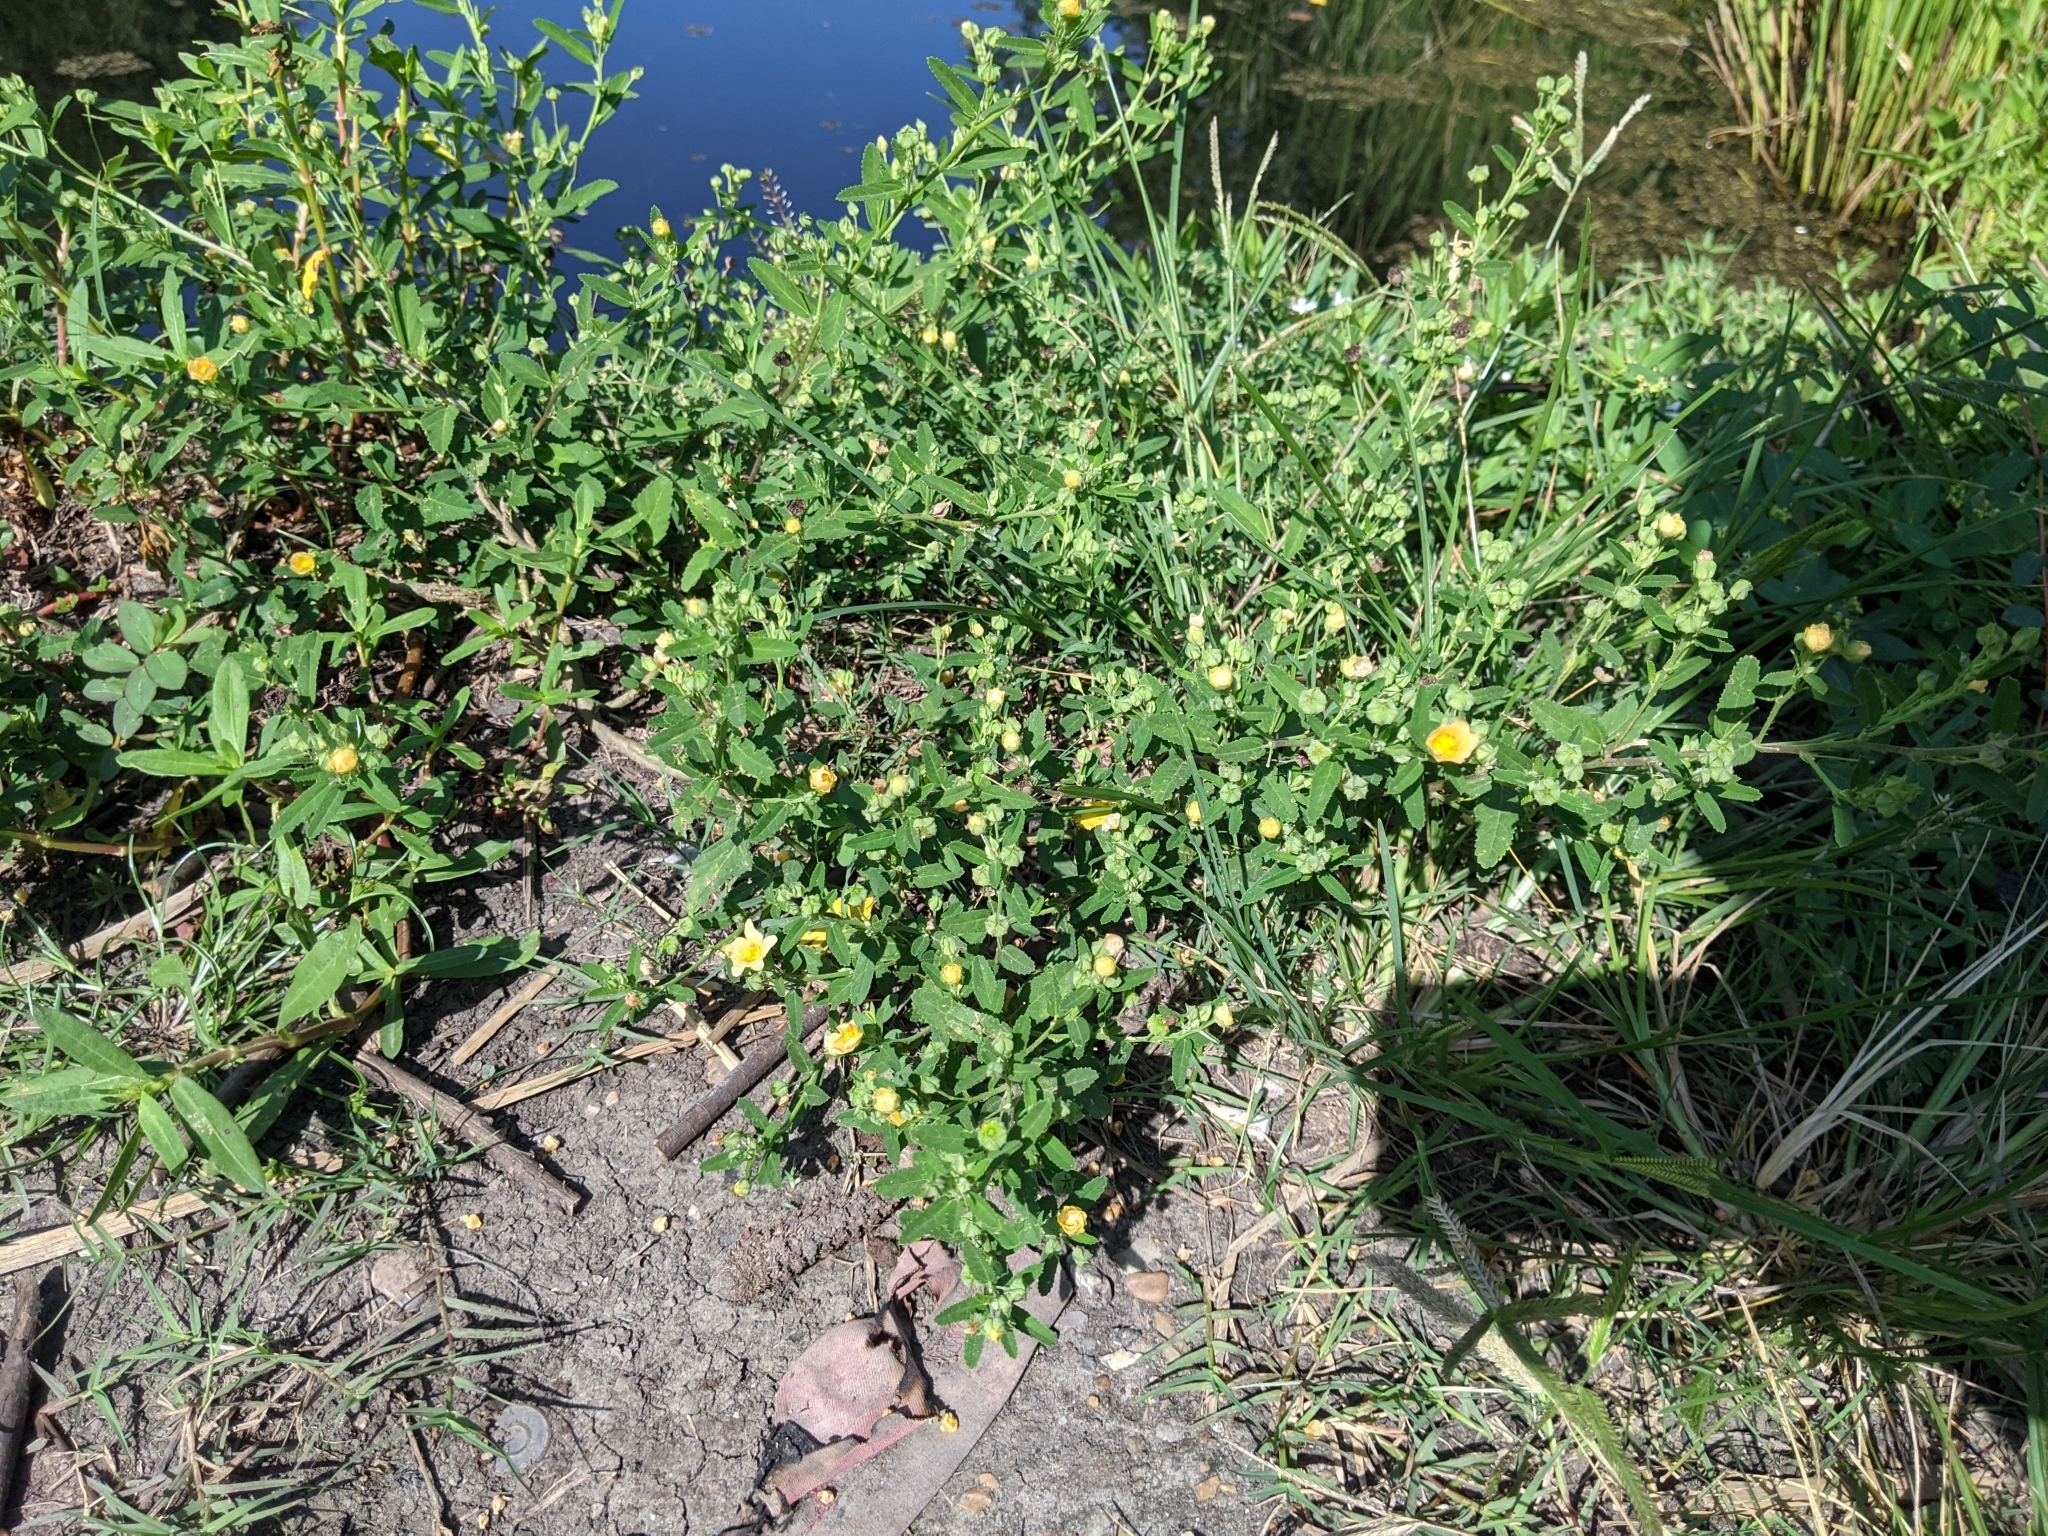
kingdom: Plantae
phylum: Tracheophyta
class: Magnoliopsida
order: Malvales
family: Malvaceae
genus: Sida
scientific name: Sida rhombifolia
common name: Queensland-hemp
